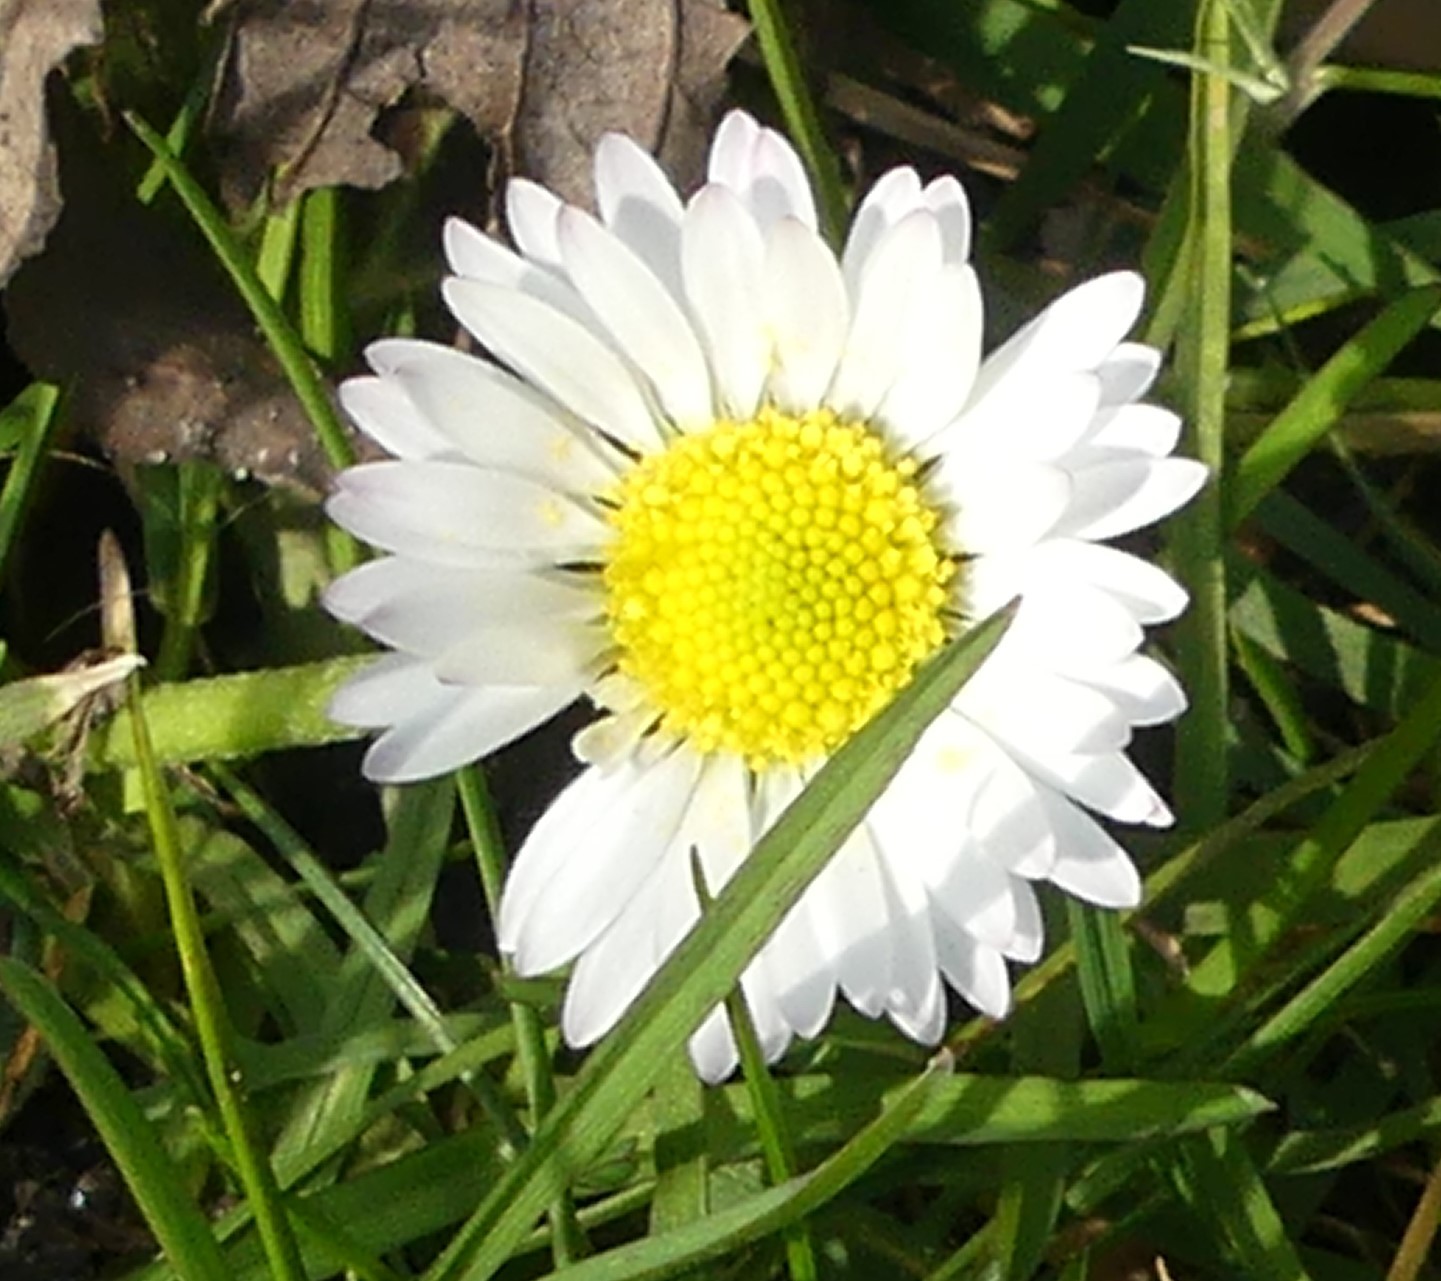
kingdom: Plantae
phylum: Tracheophyta
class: Magnoliopsida
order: Asterales
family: Asteraceae
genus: Bellis
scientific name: Bellis perennis
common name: Lawndaisy
